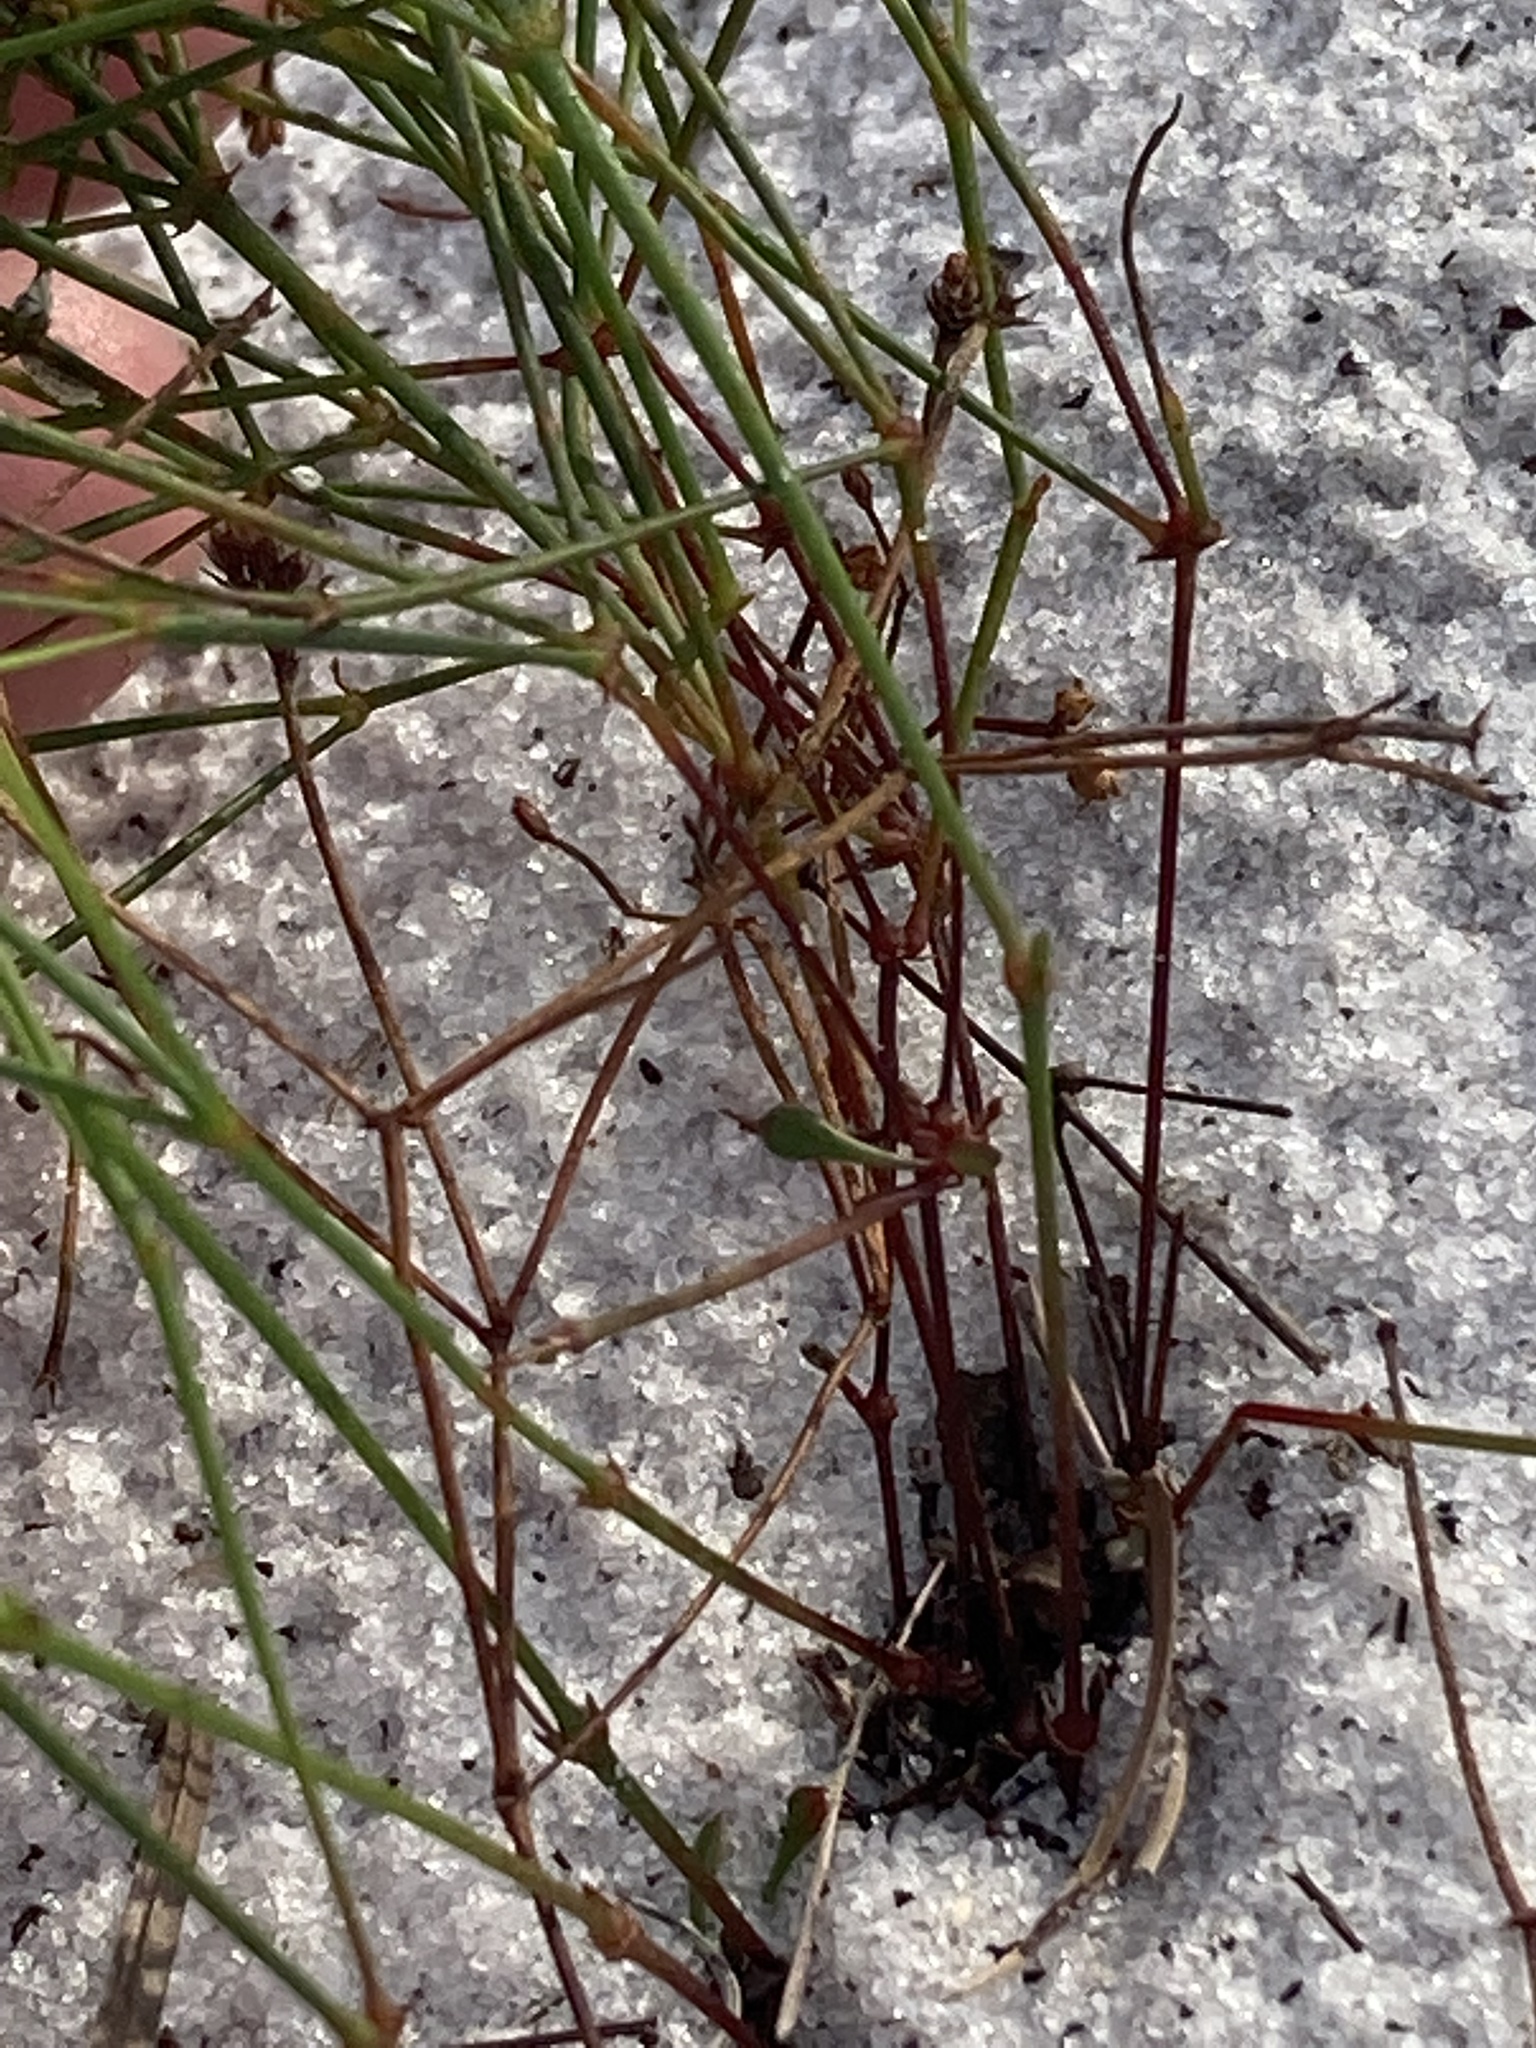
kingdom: Plantae
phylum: Tracheophyta
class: Magnoliopsida
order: Caryophyllales
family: Caryophyllaceae
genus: Stipulicida
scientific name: Stipulicida setacea
